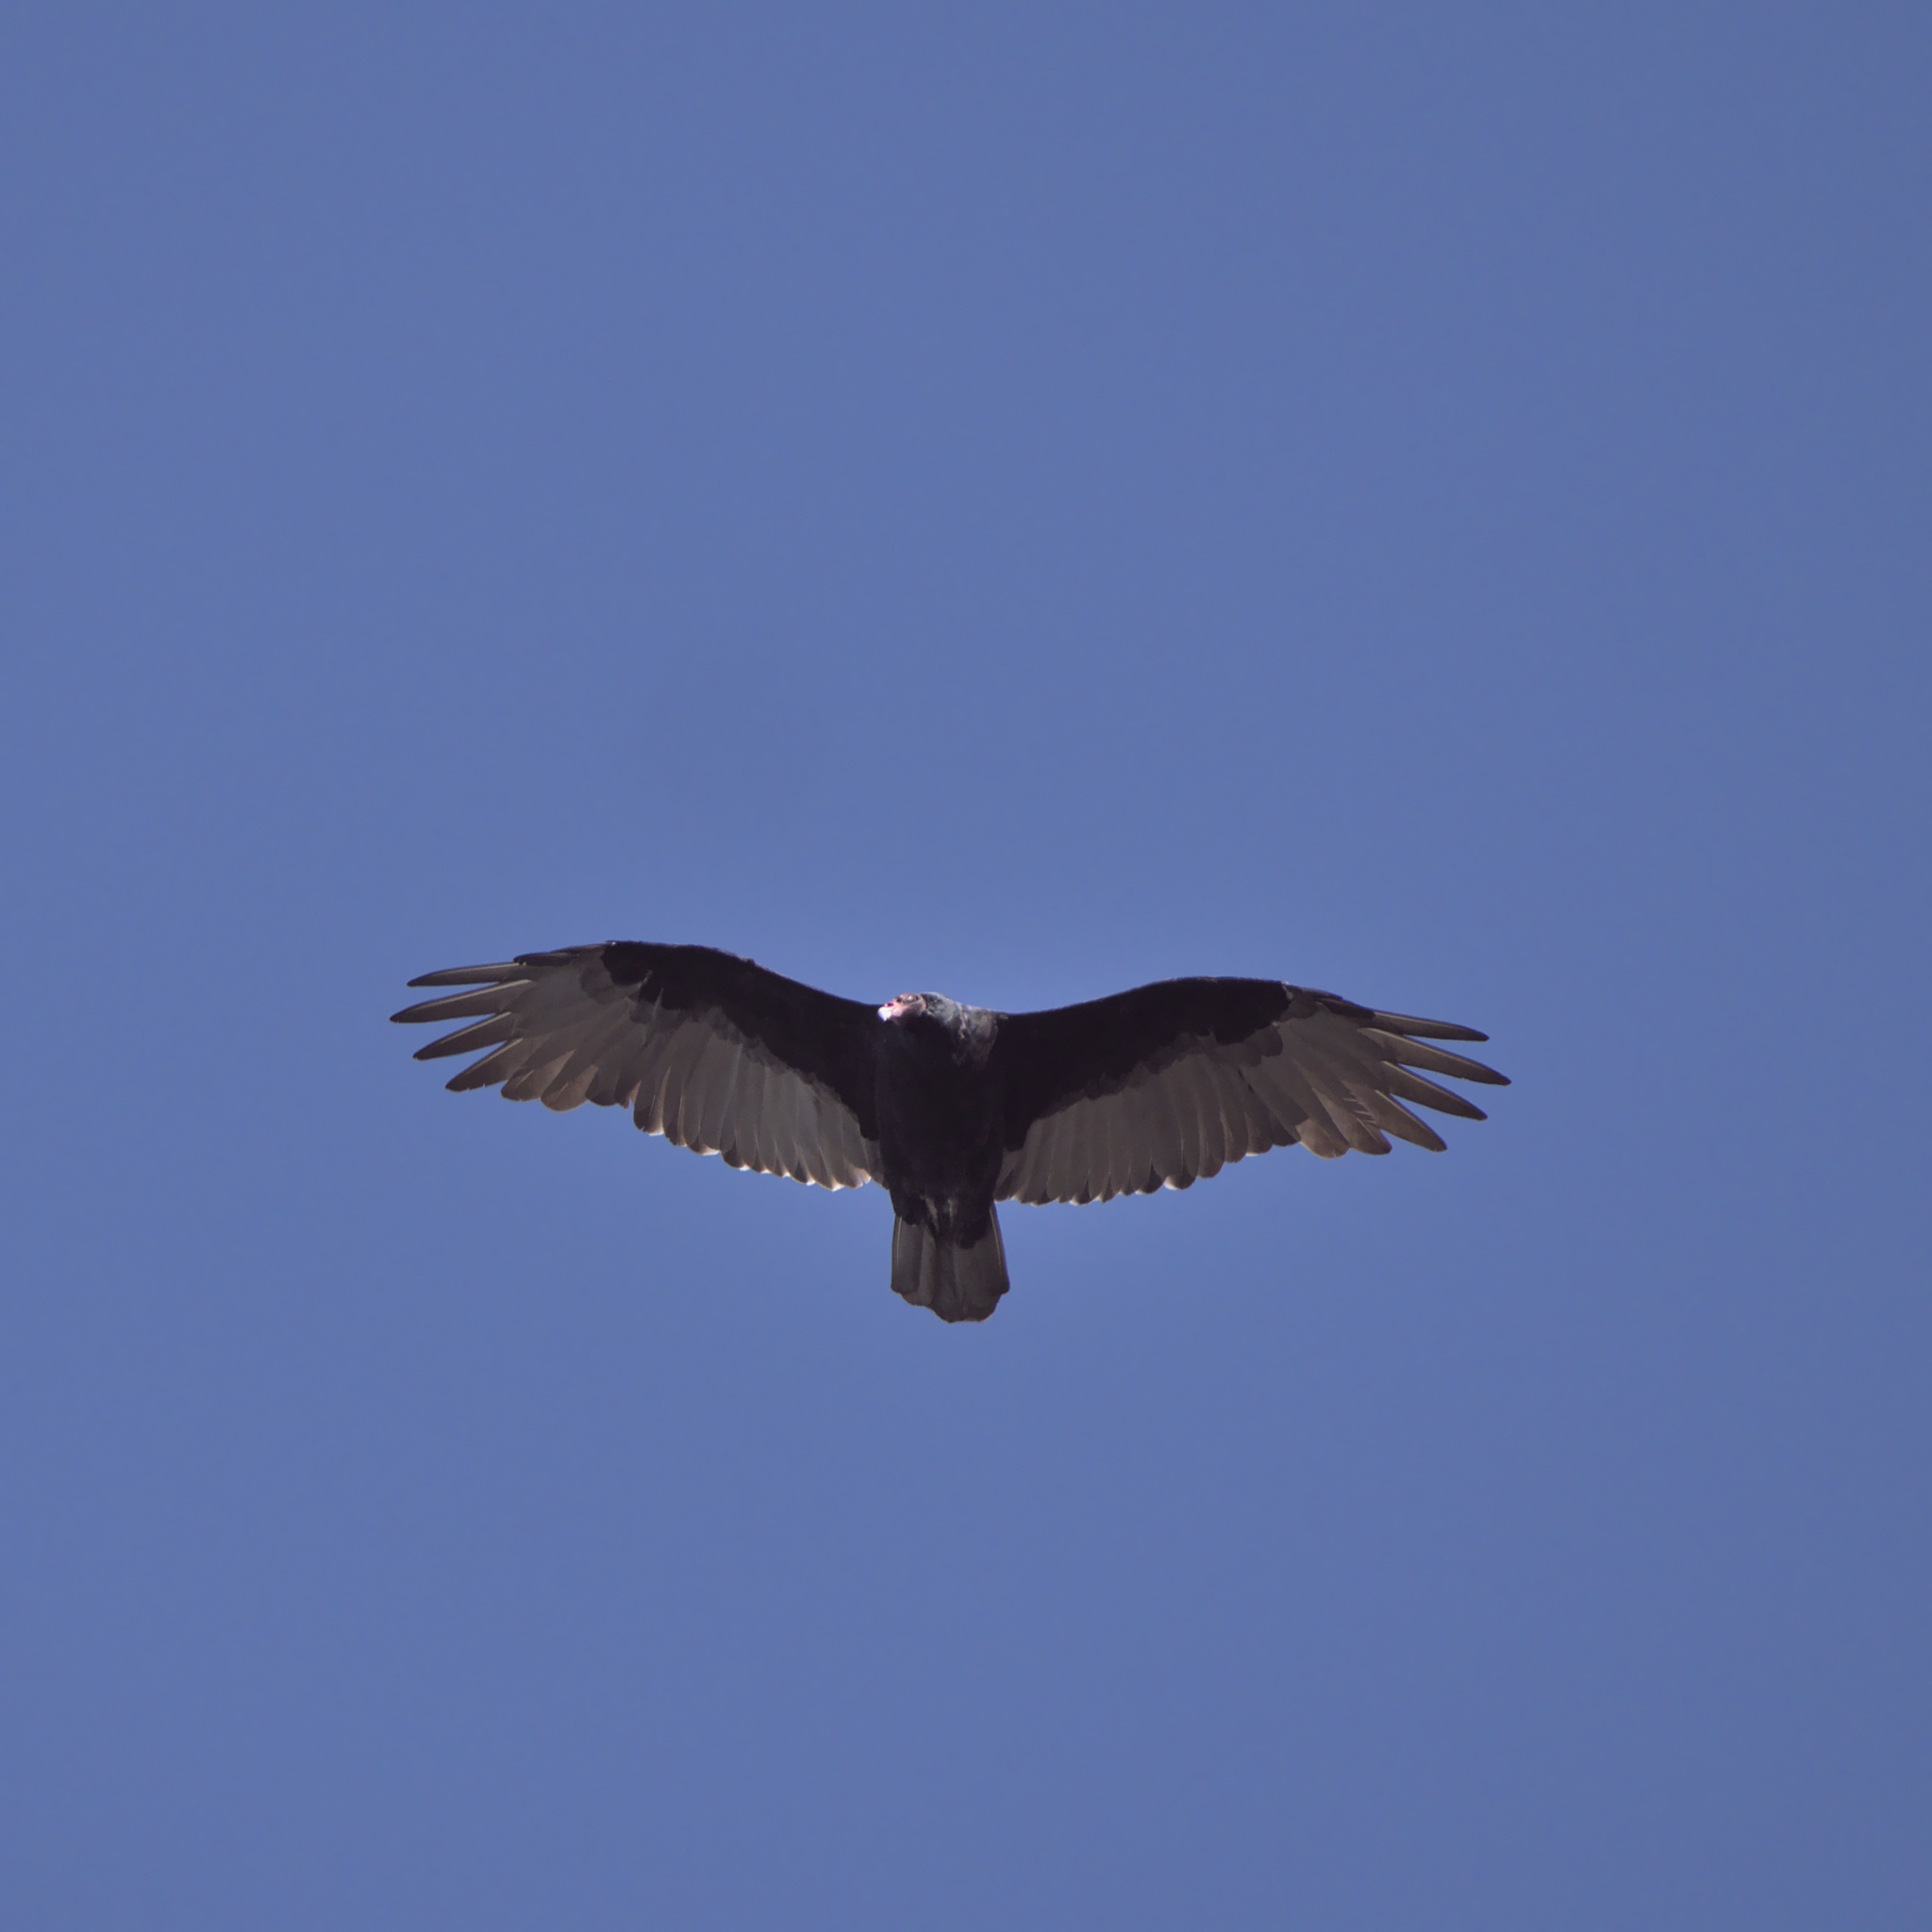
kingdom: Animalia
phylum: Chordata
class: Aves
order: Accipitriformes
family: Cathartidae
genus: Cathartes
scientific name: Cathartes aura
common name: Turkey vulture
